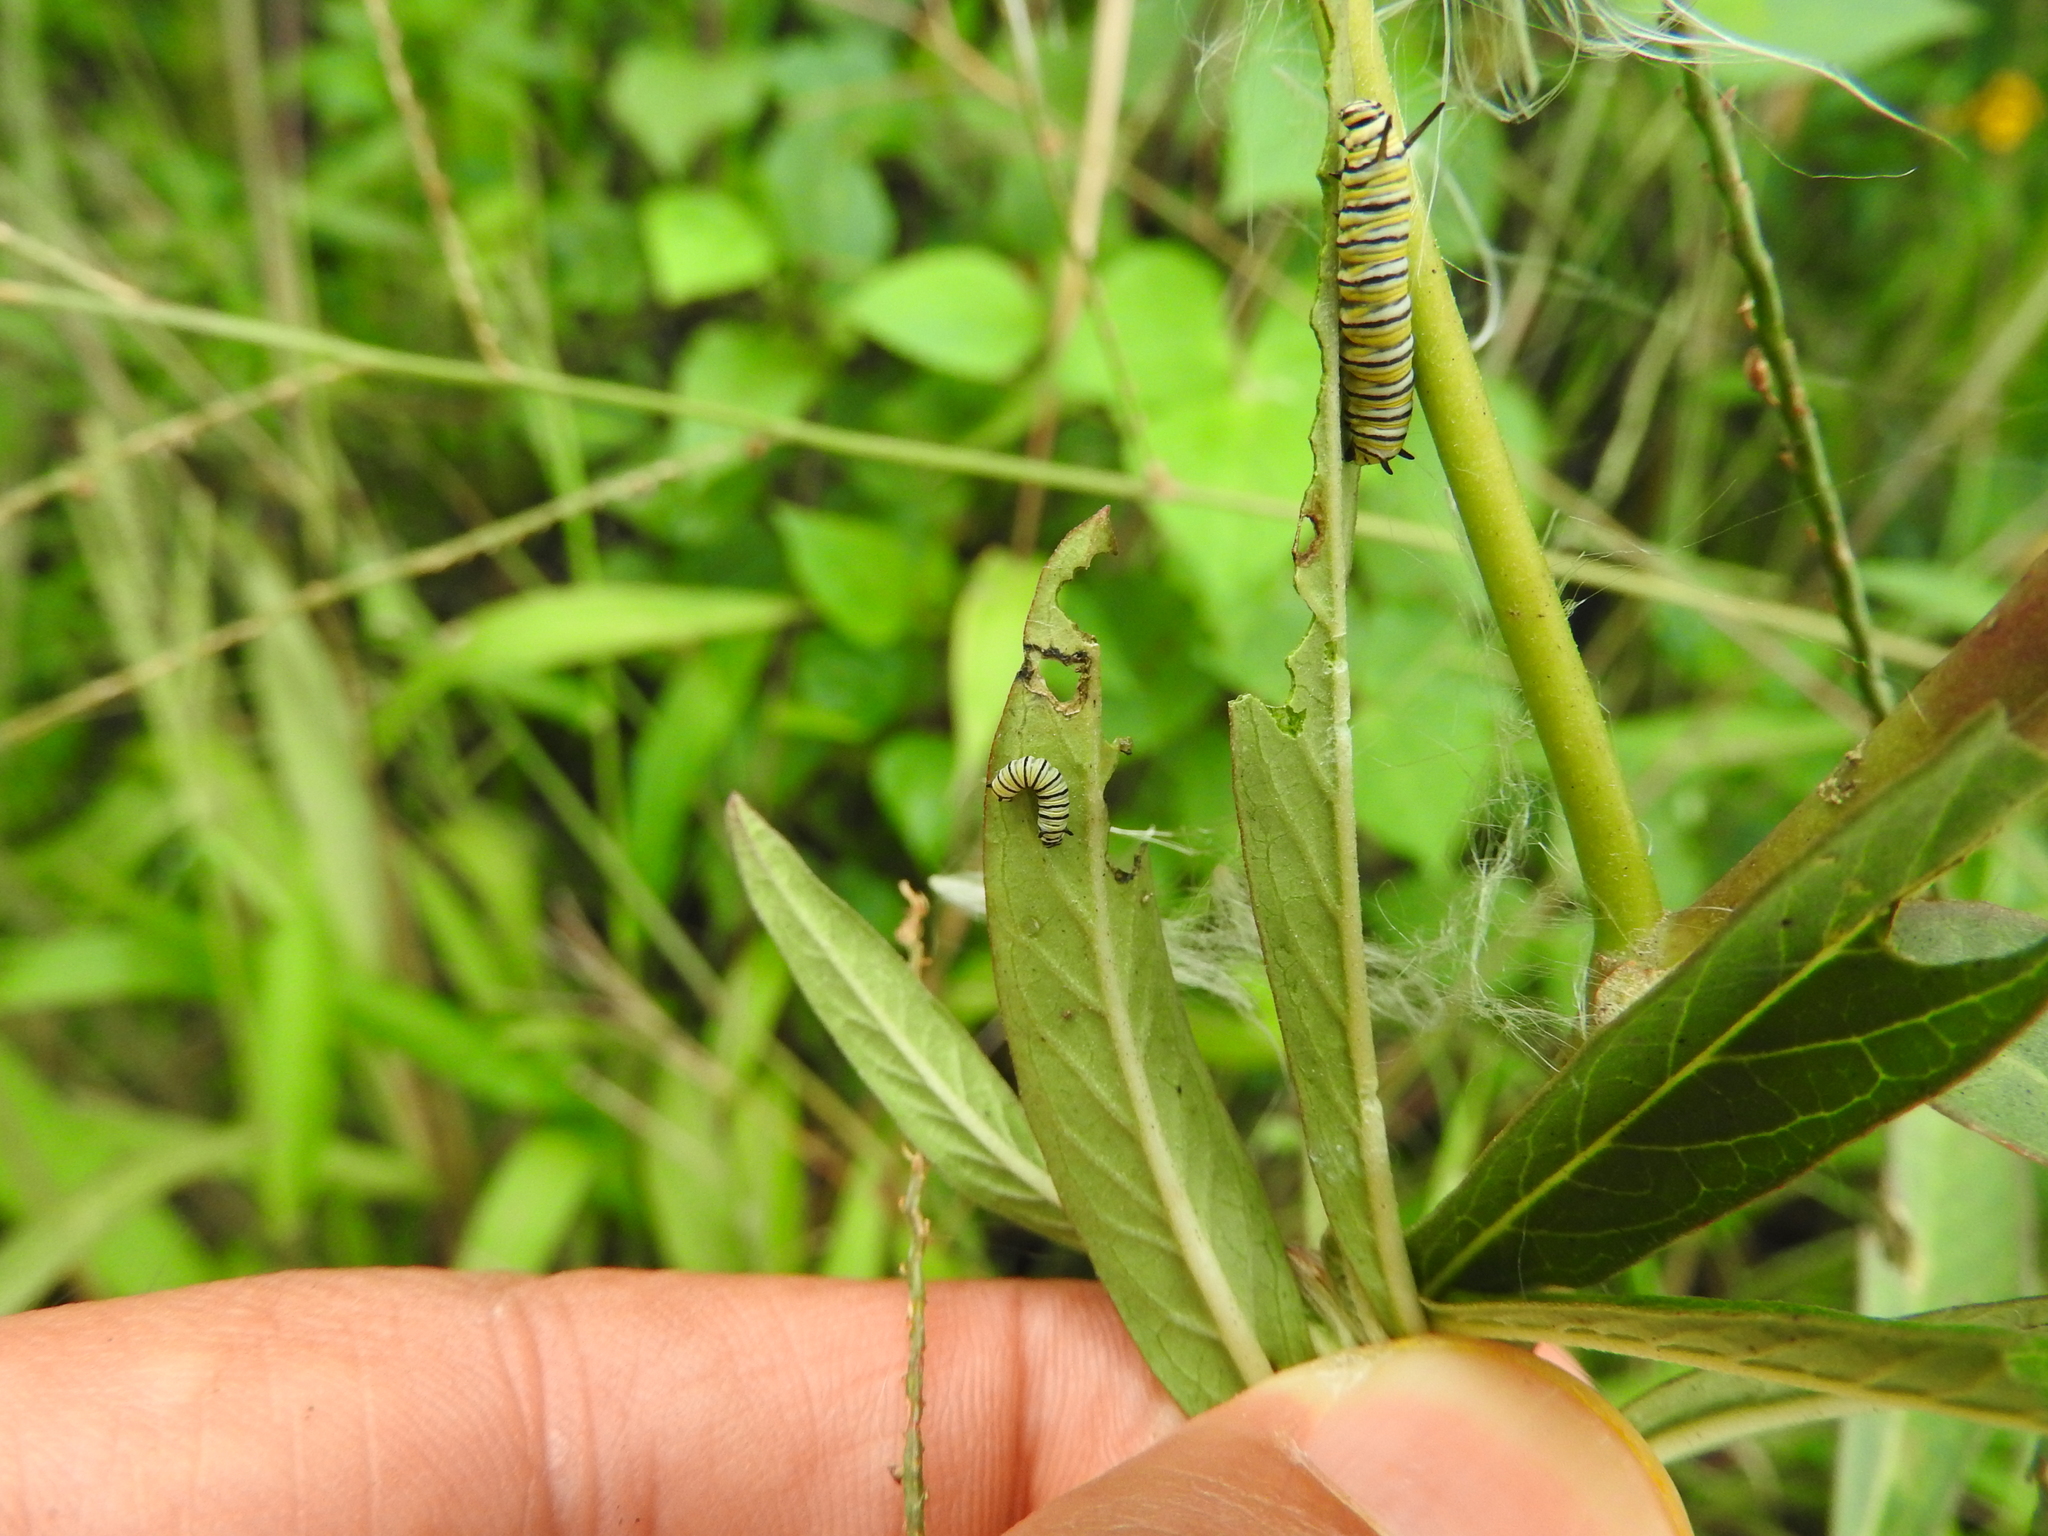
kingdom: Animalia
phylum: Arthropoda
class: Insecta
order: Lepidoptera
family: Nymphalidae
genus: Danaus
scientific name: Danaus plexippus
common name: Monarch
